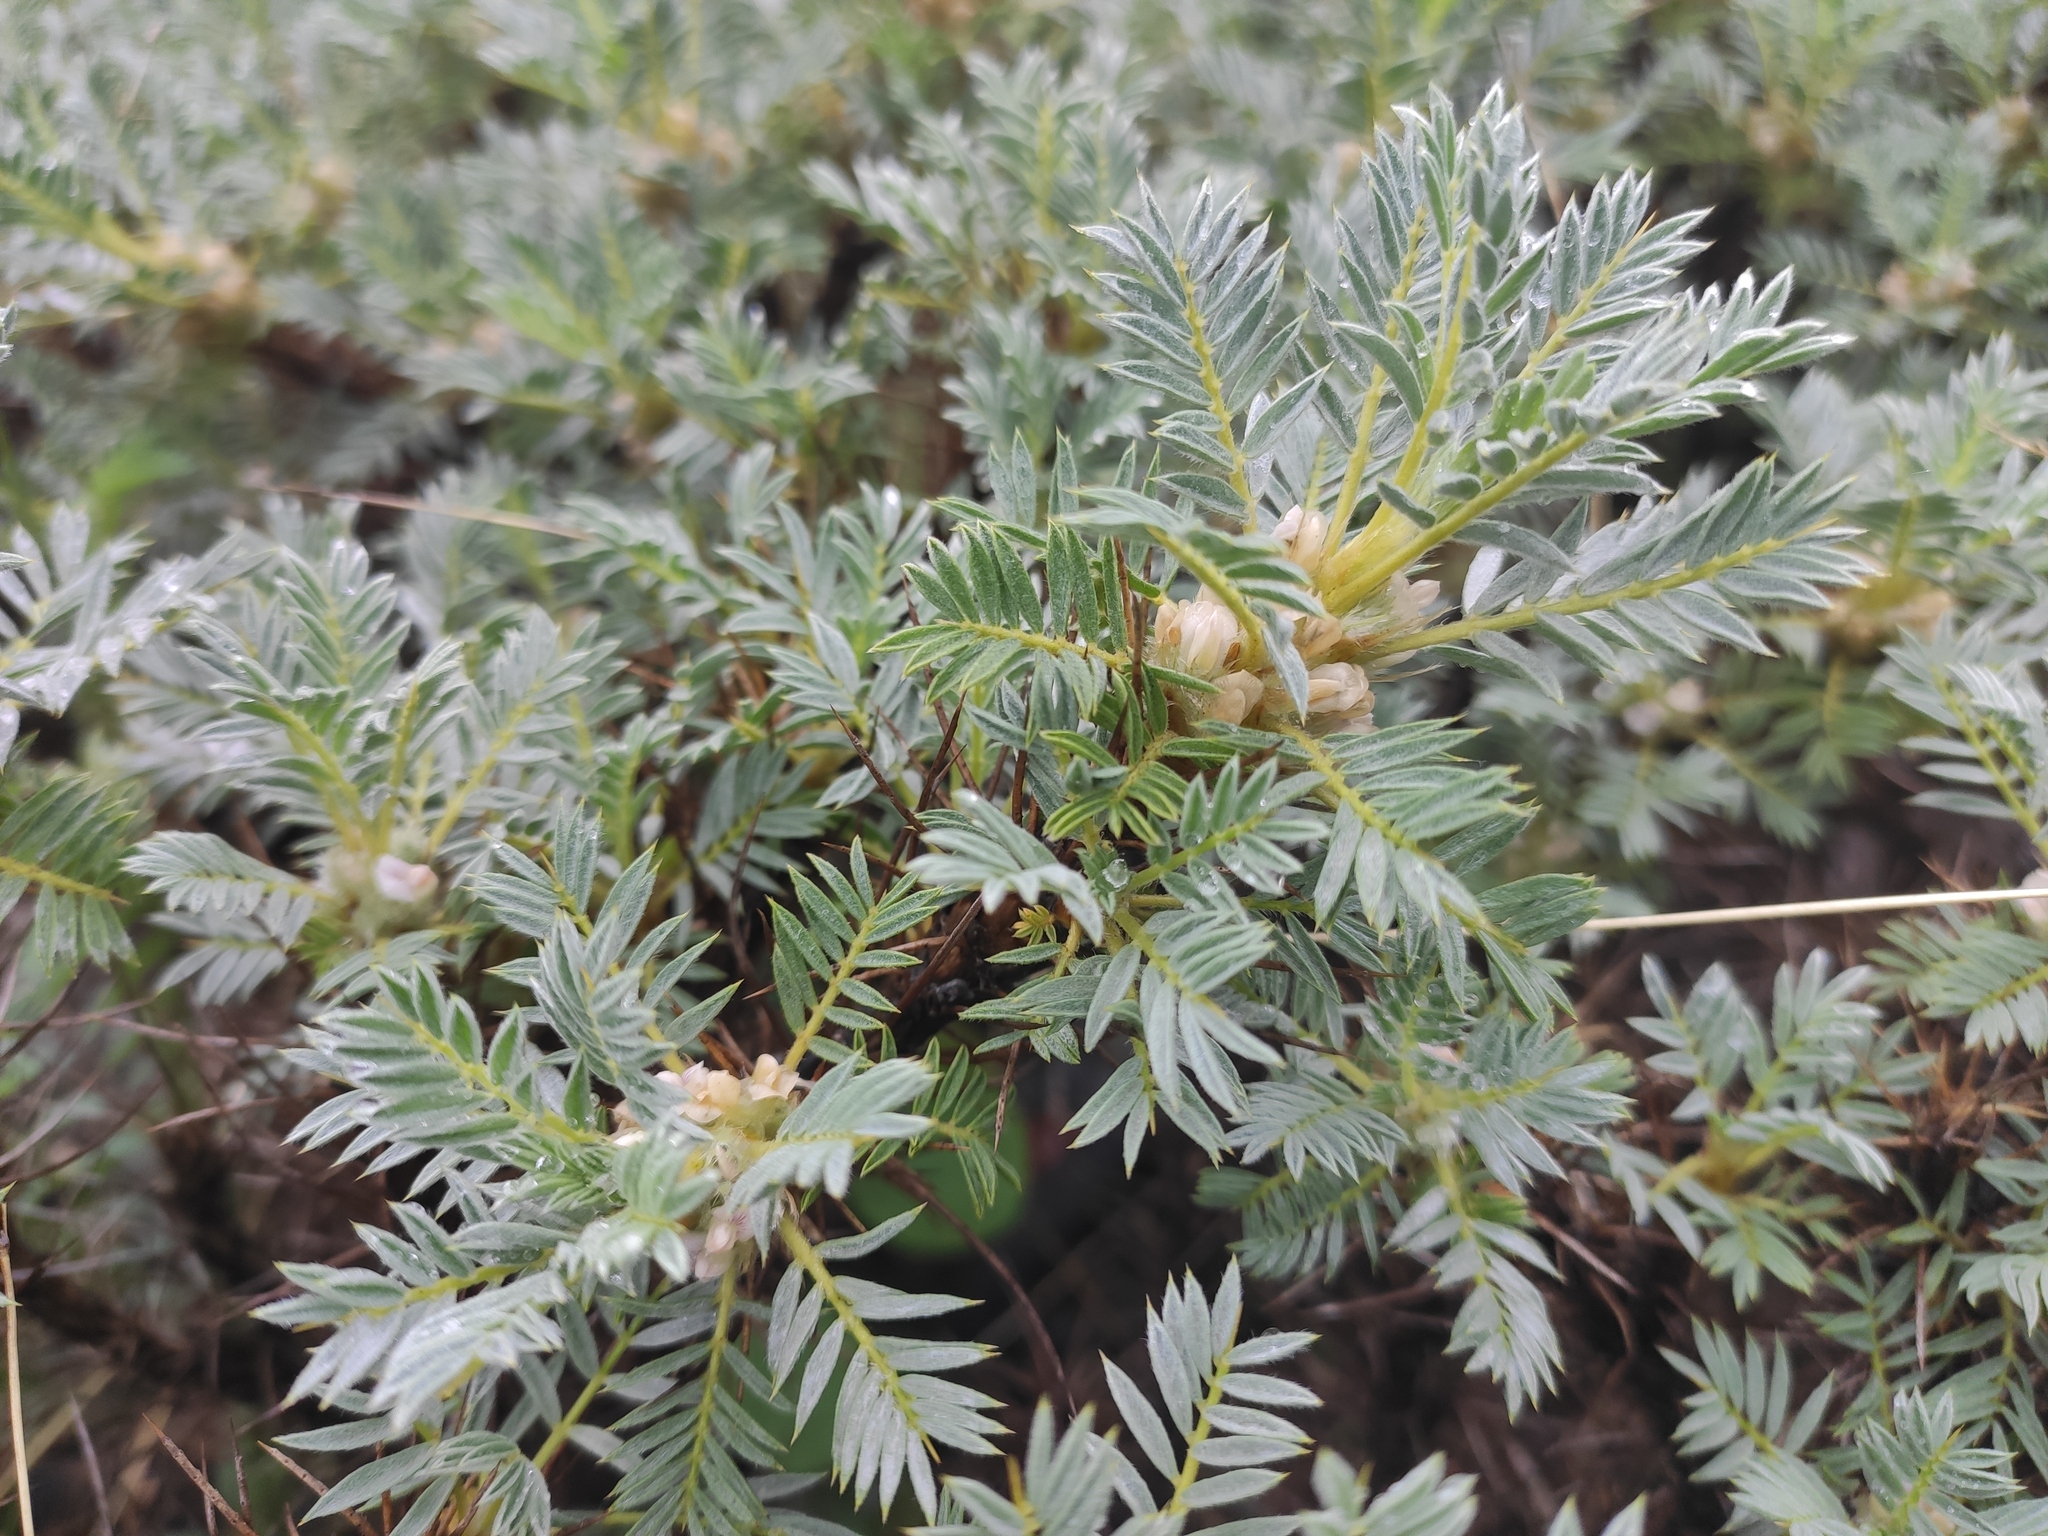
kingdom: Plantae
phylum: Tracheophyta
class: Magnoliopsida
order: Fabales
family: Fabaceae
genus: Astragalus
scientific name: Astragalus arnacanthoides
